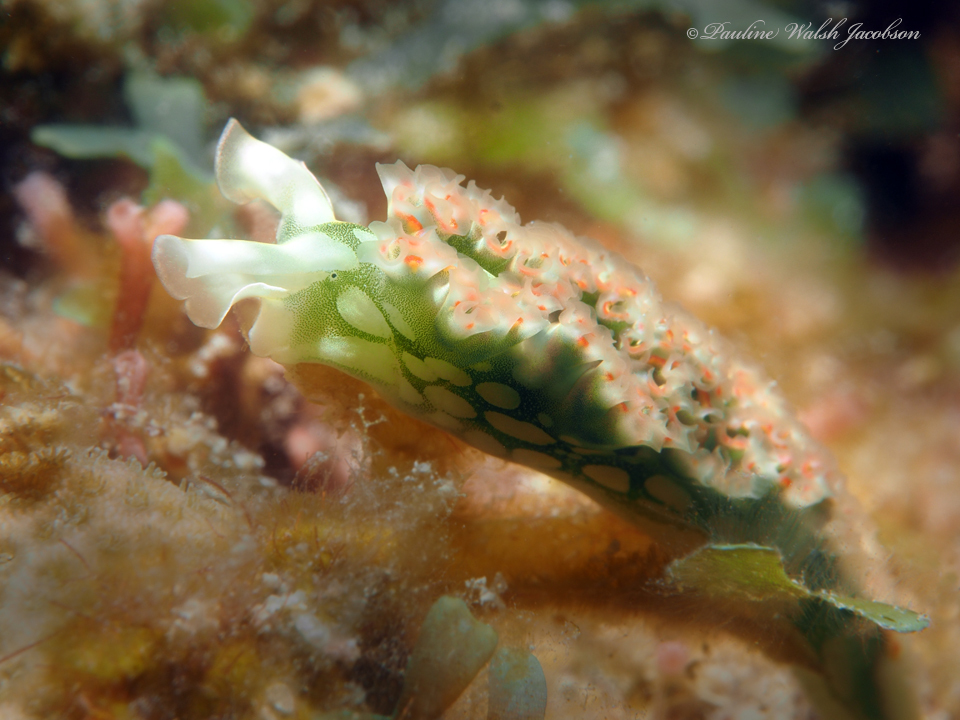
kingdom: Animalia
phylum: Mollusca
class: Gastropoda
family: Plakobranchidae
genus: Elysia
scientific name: Elysia crispata
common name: Lettuce slug
